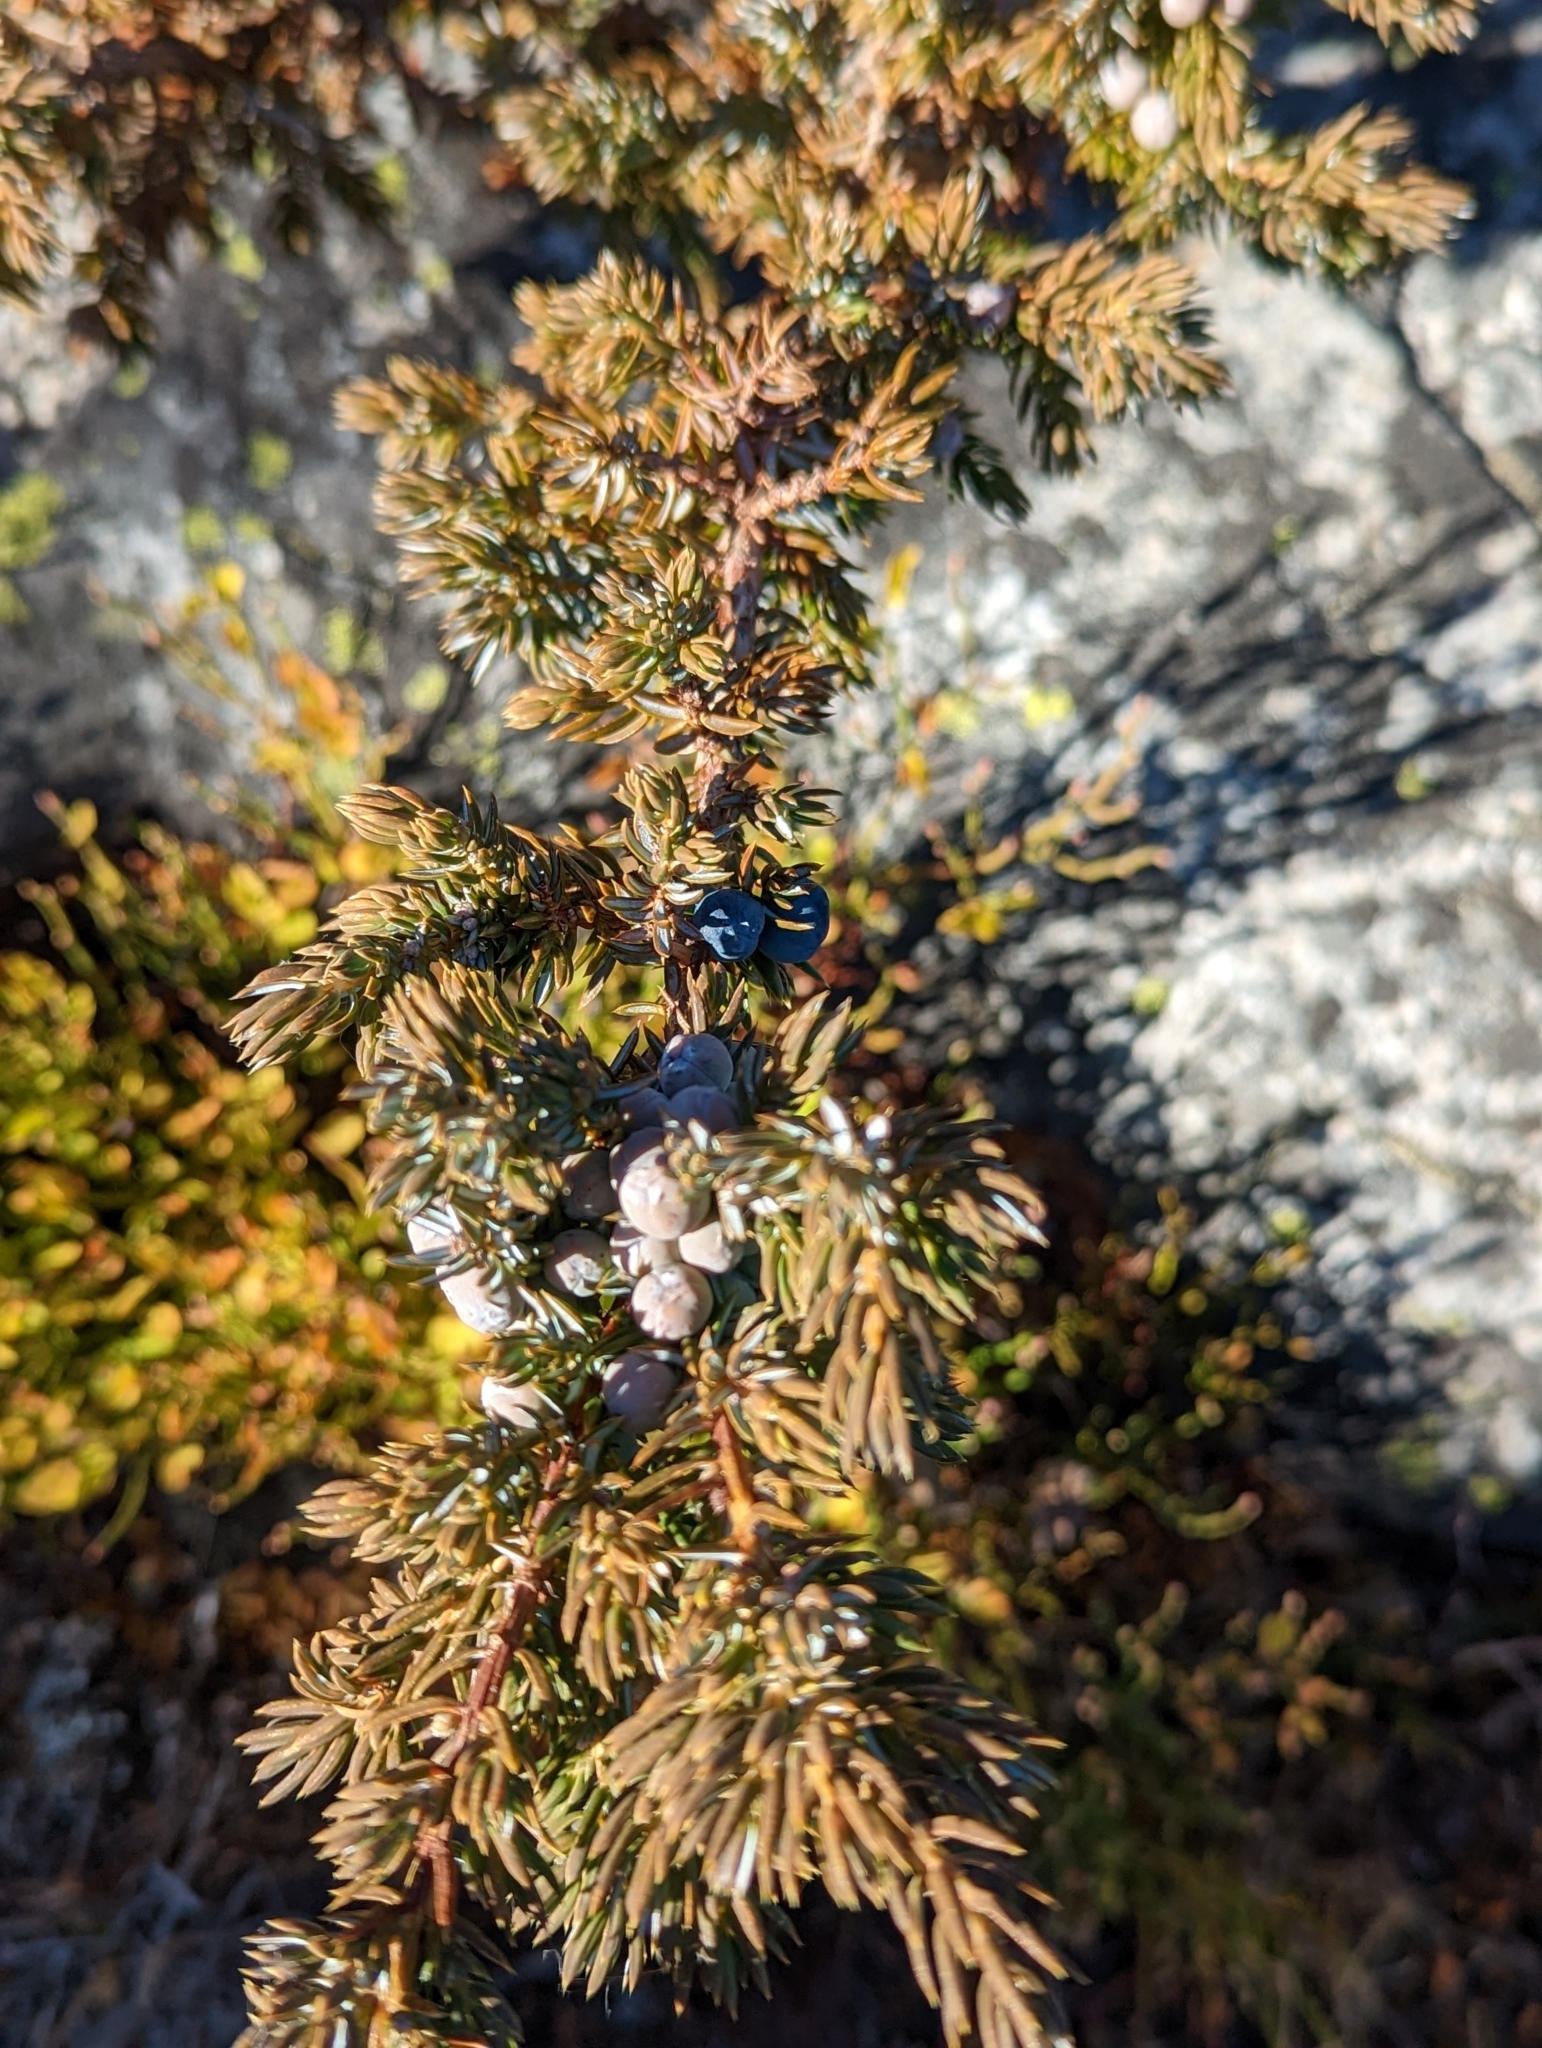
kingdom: Plantae
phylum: Tracheophyta
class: Pinopsida
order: Pinales
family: Cupressaceae
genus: Juniperus
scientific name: Juniperus communis
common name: Common juniper
